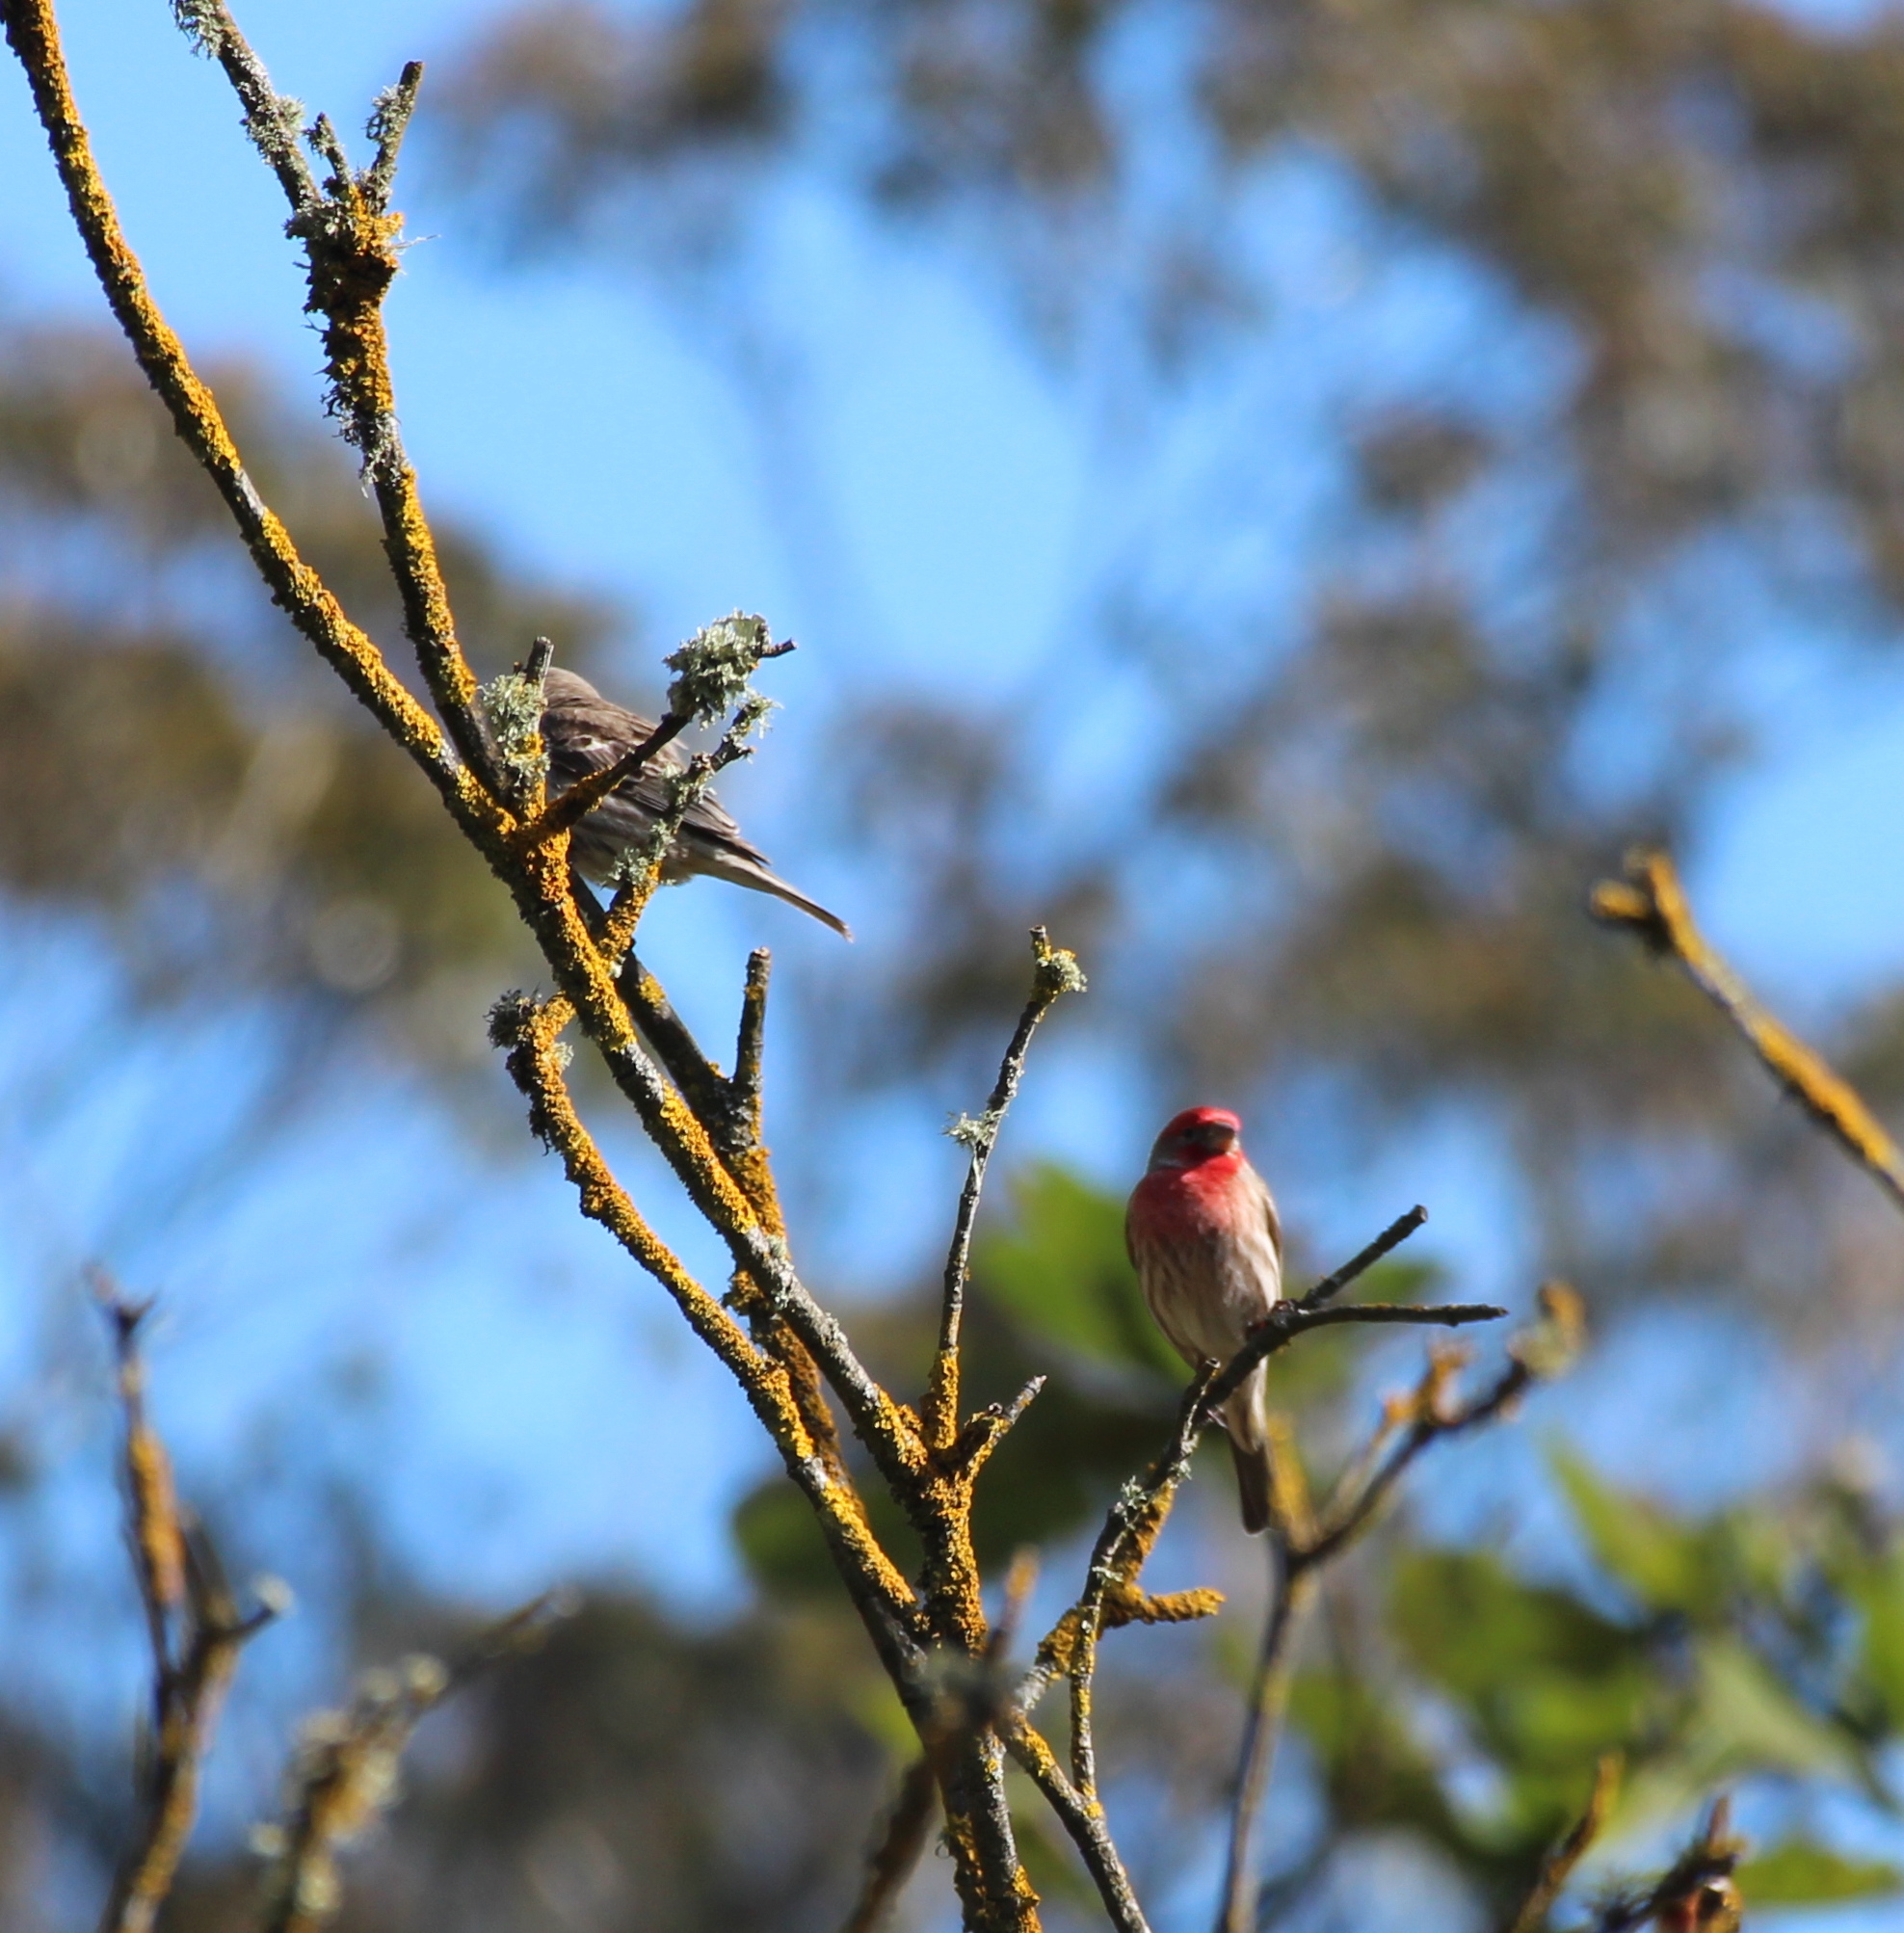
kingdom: Animalia
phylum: Chordata
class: Aves
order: Passeriformes
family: Fringillidae
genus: Haemorhous
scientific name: Haemorhous mexicanus
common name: House finch
